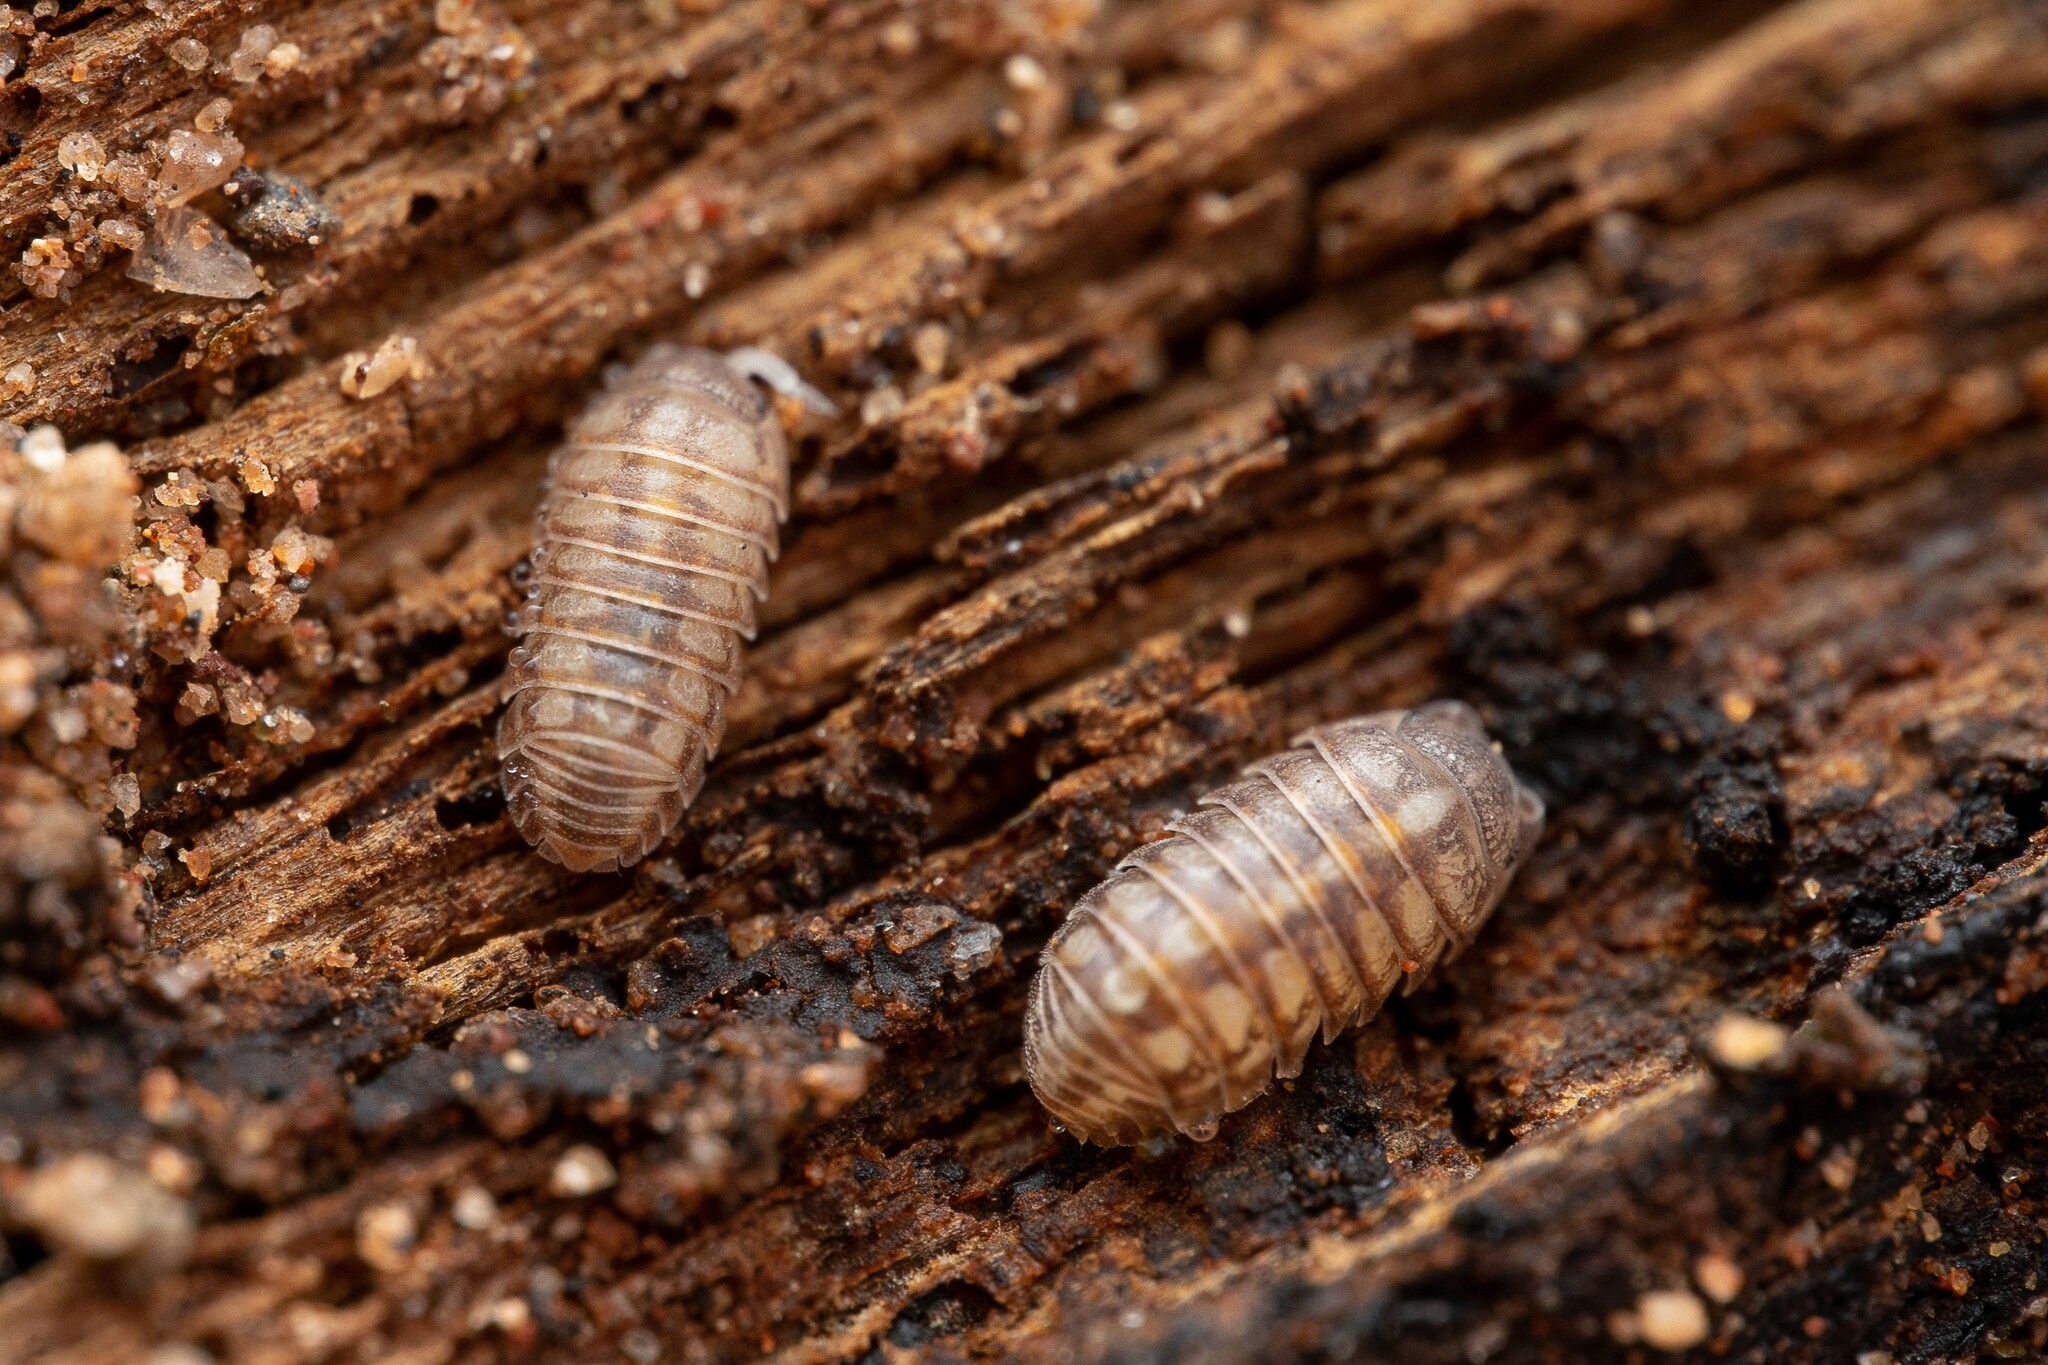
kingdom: Animalia
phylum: Arthropoda
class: Malacostraca
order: Isopoda
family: Armadillidiidae
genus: Armadillidium
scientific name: Armadillidium vulgare
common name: Common pill woodlouse
